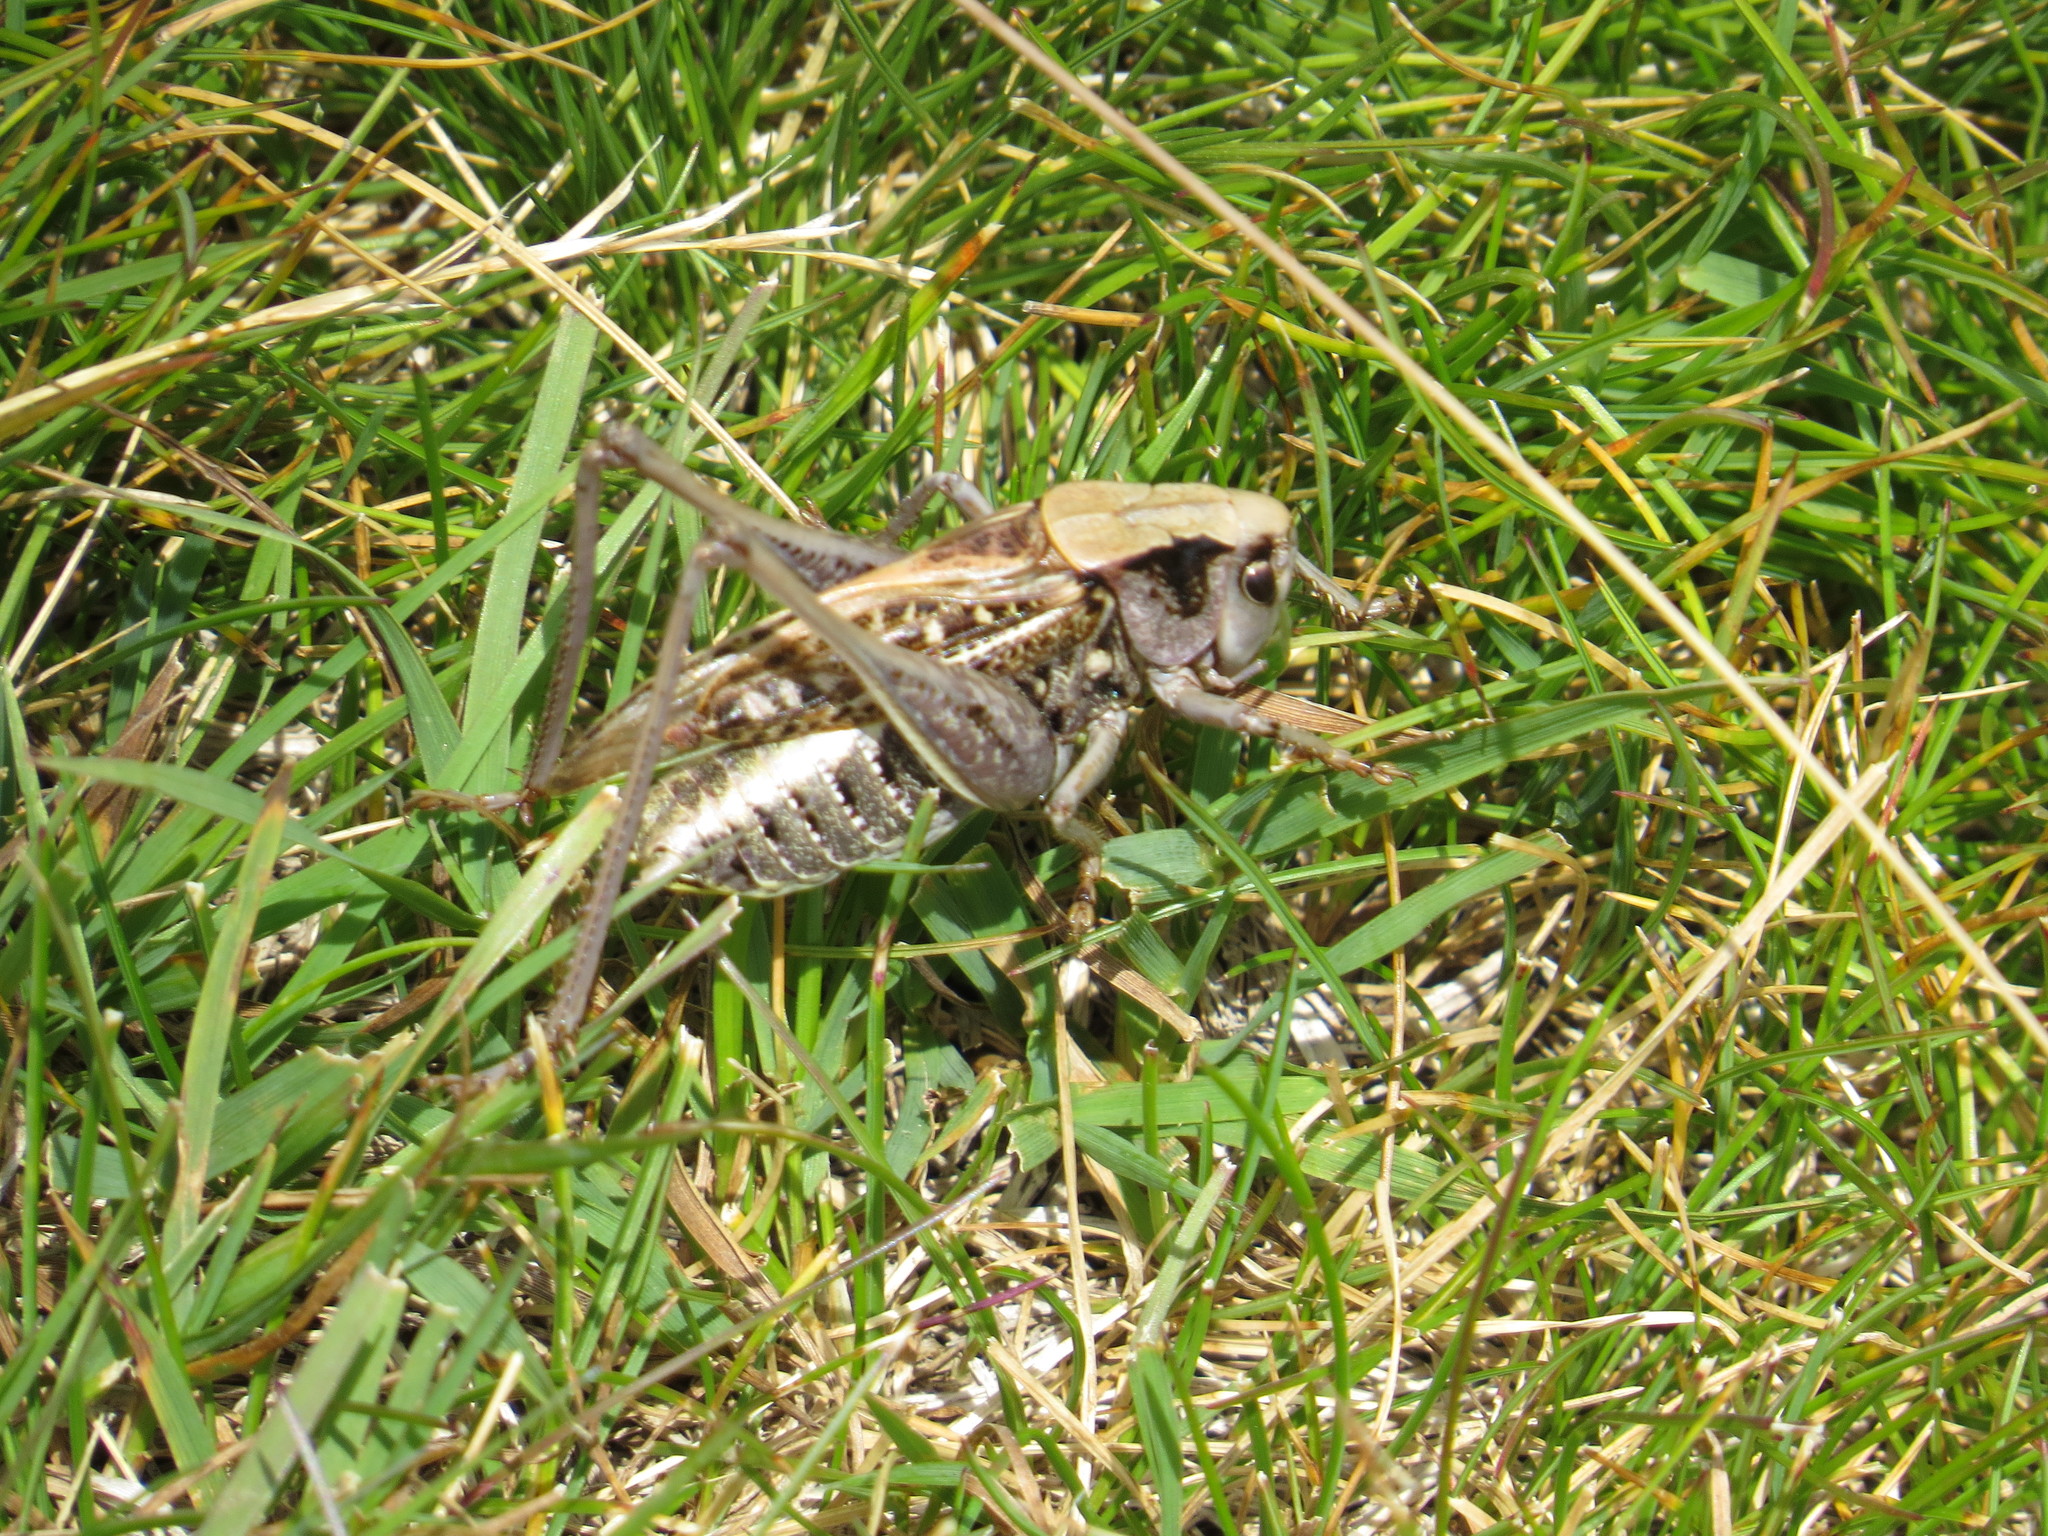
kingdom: Animalia
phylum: Arthropoda
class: Insecta
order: Orthoptera
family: Tettigoniidae
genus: Decticus
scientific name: Decticus verrucivorus
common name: Wart-biter
